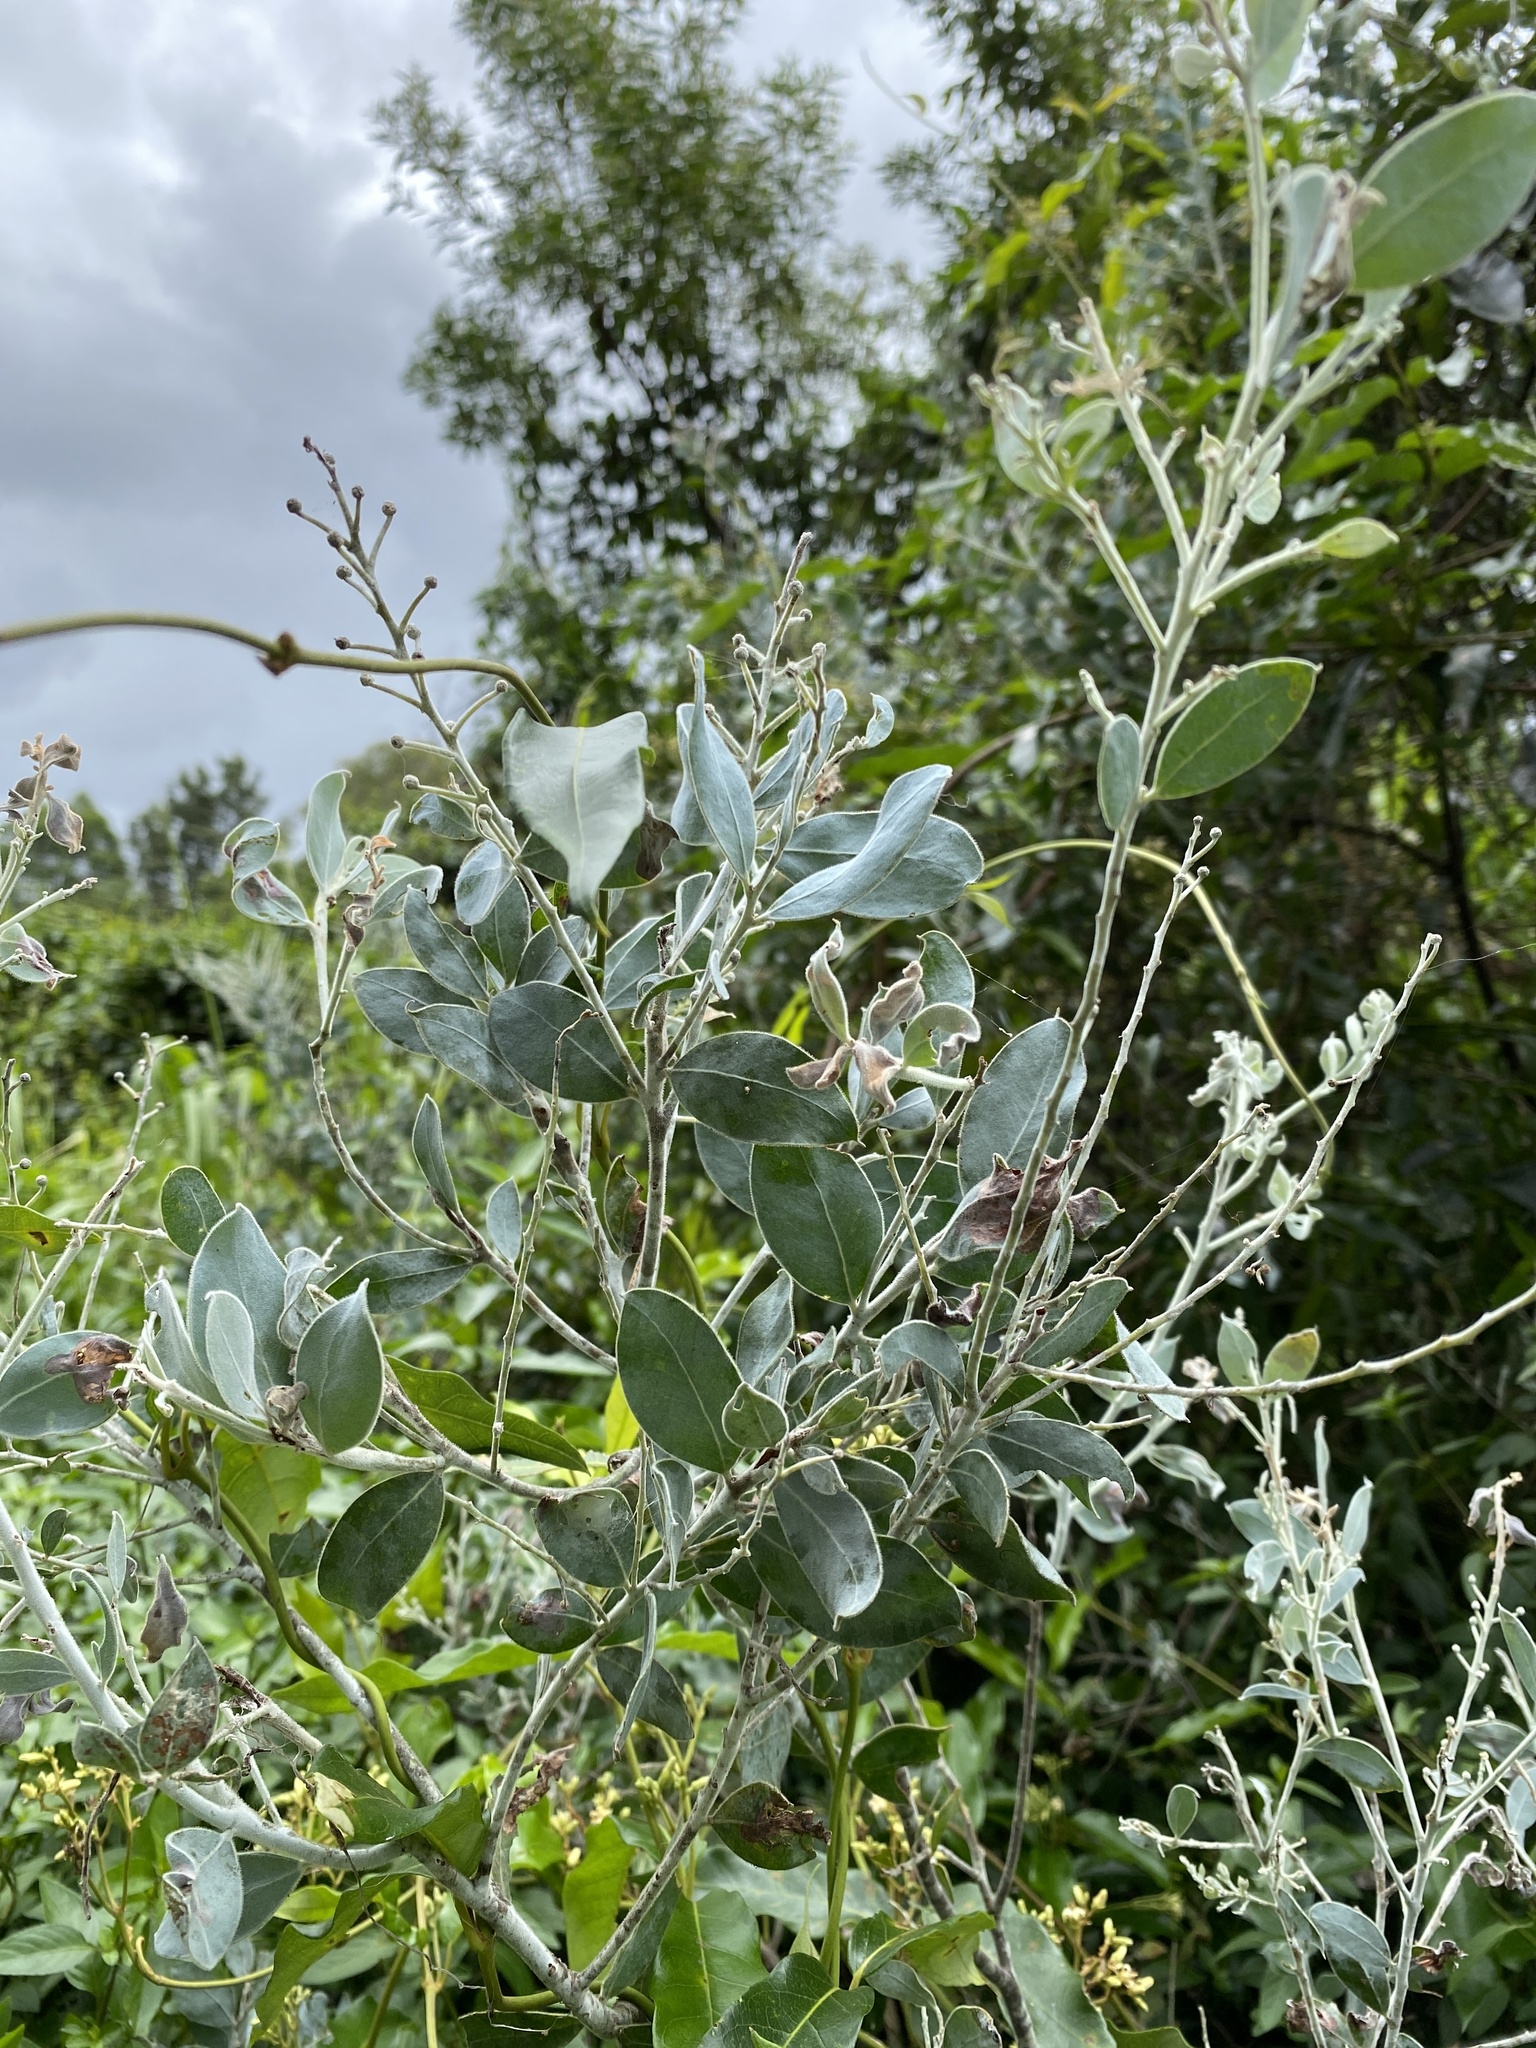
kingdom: Plantae
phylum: Tracheophyta
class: Magnoliopsida
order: Fabales
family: Fabaceae
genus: Acacia
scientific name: Acacia podalyriifolia
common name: Pearl wattle
